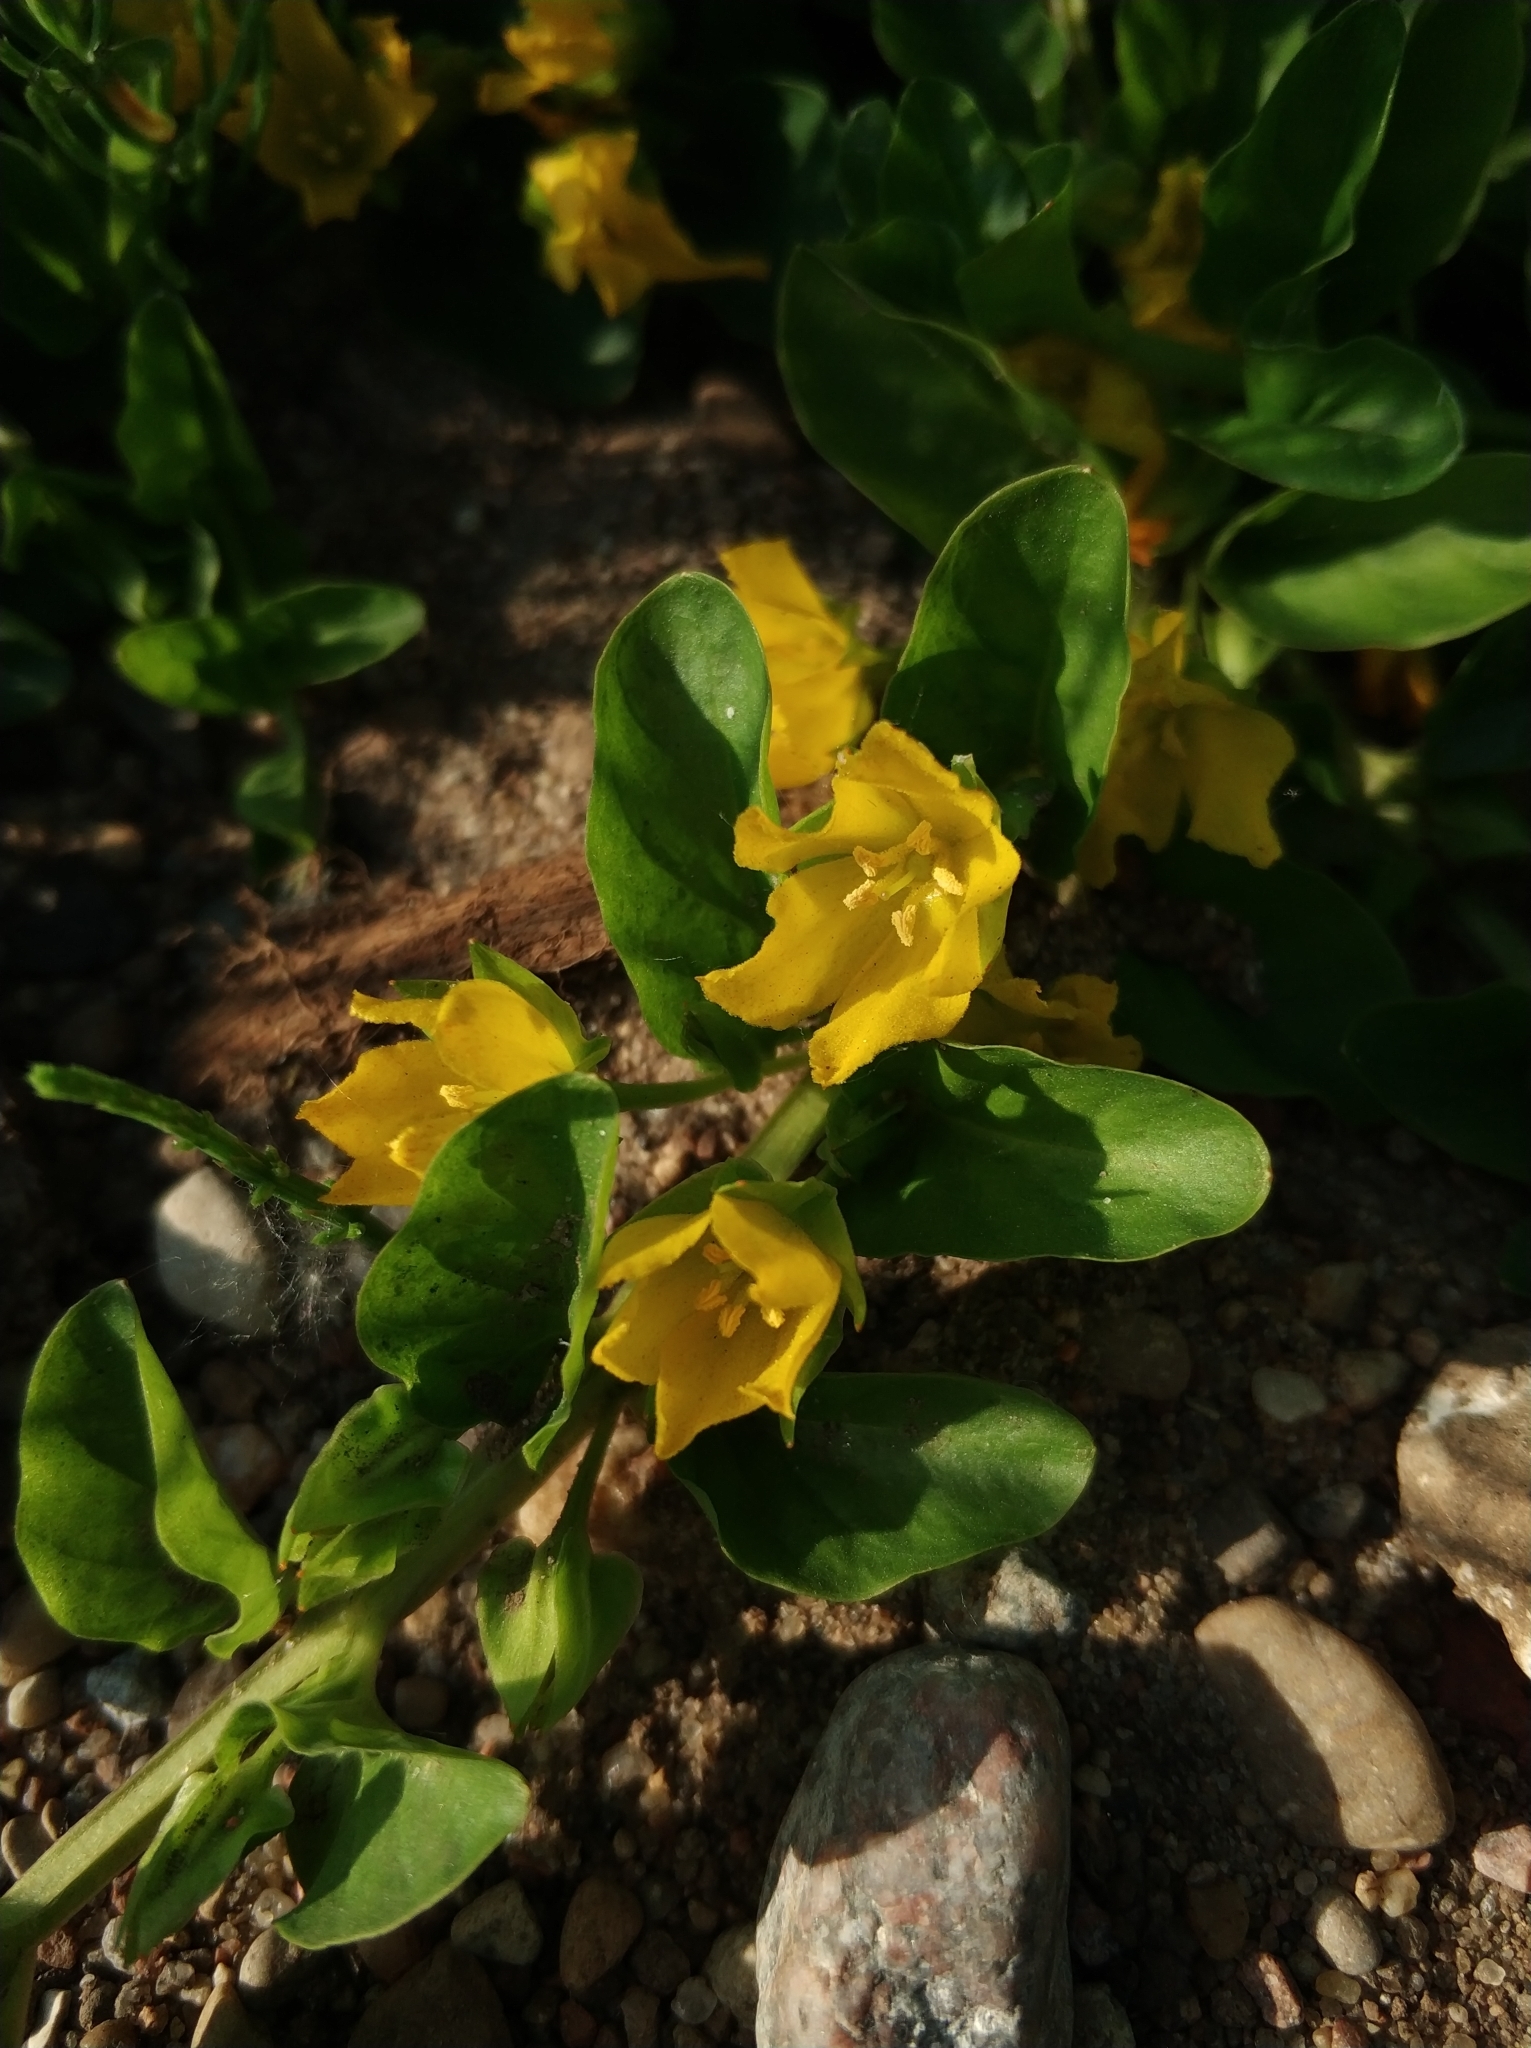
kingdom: Plantae
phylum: Tracheophyta
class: Magnoliopsida
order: Ericales
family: Primulaceae
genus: Lysimachia
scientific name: Lysimachia nummularia
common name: Moneywort
